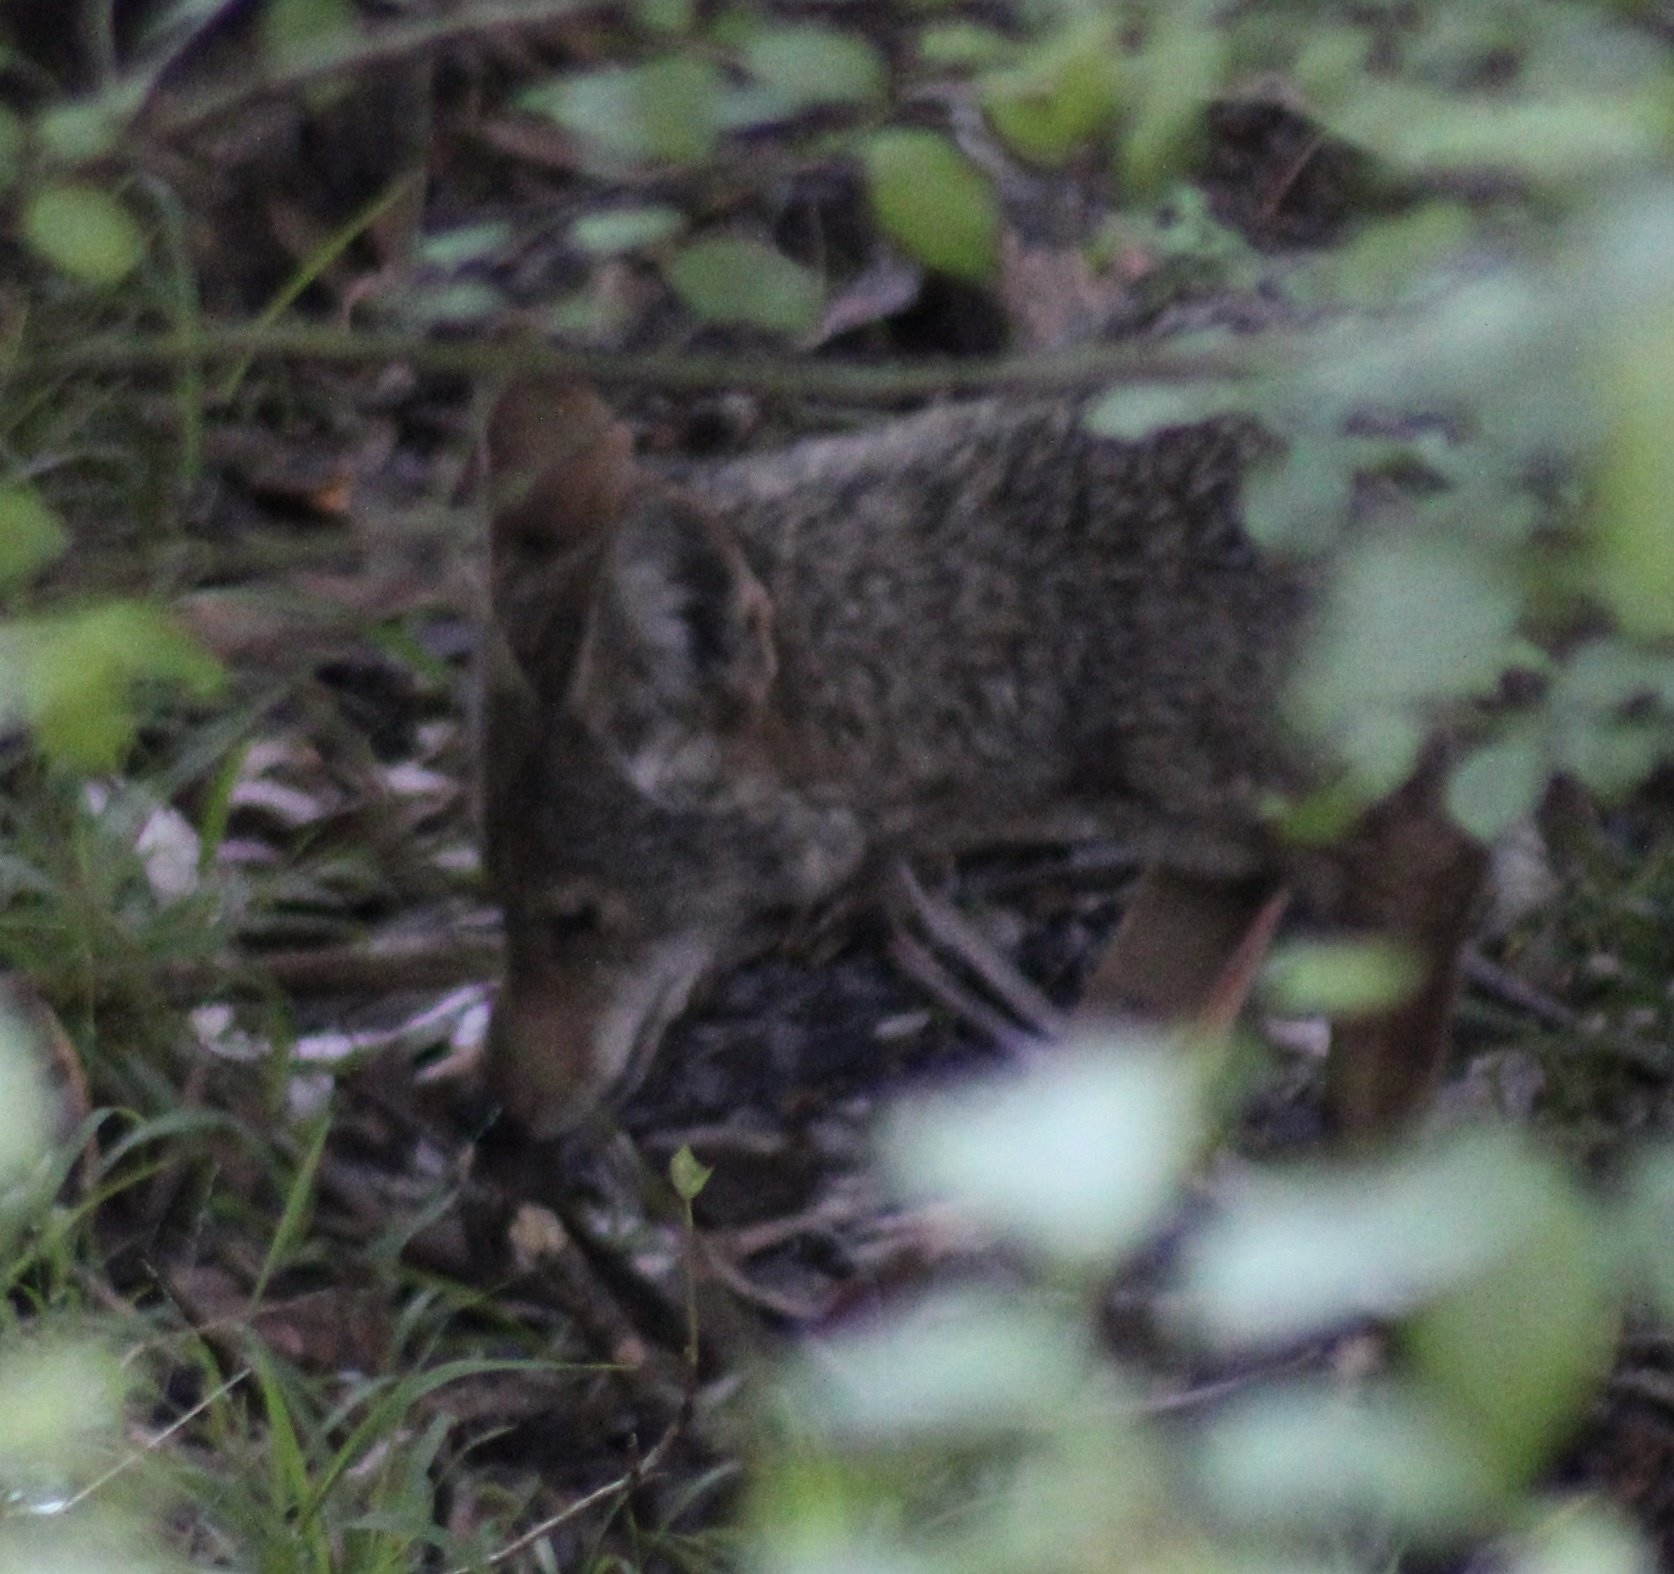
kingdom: Animalia
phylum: Chordata
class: Mammalia
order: Carnivora
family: Canidae
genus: Canis
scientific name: Canis latrans
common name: Coyote
